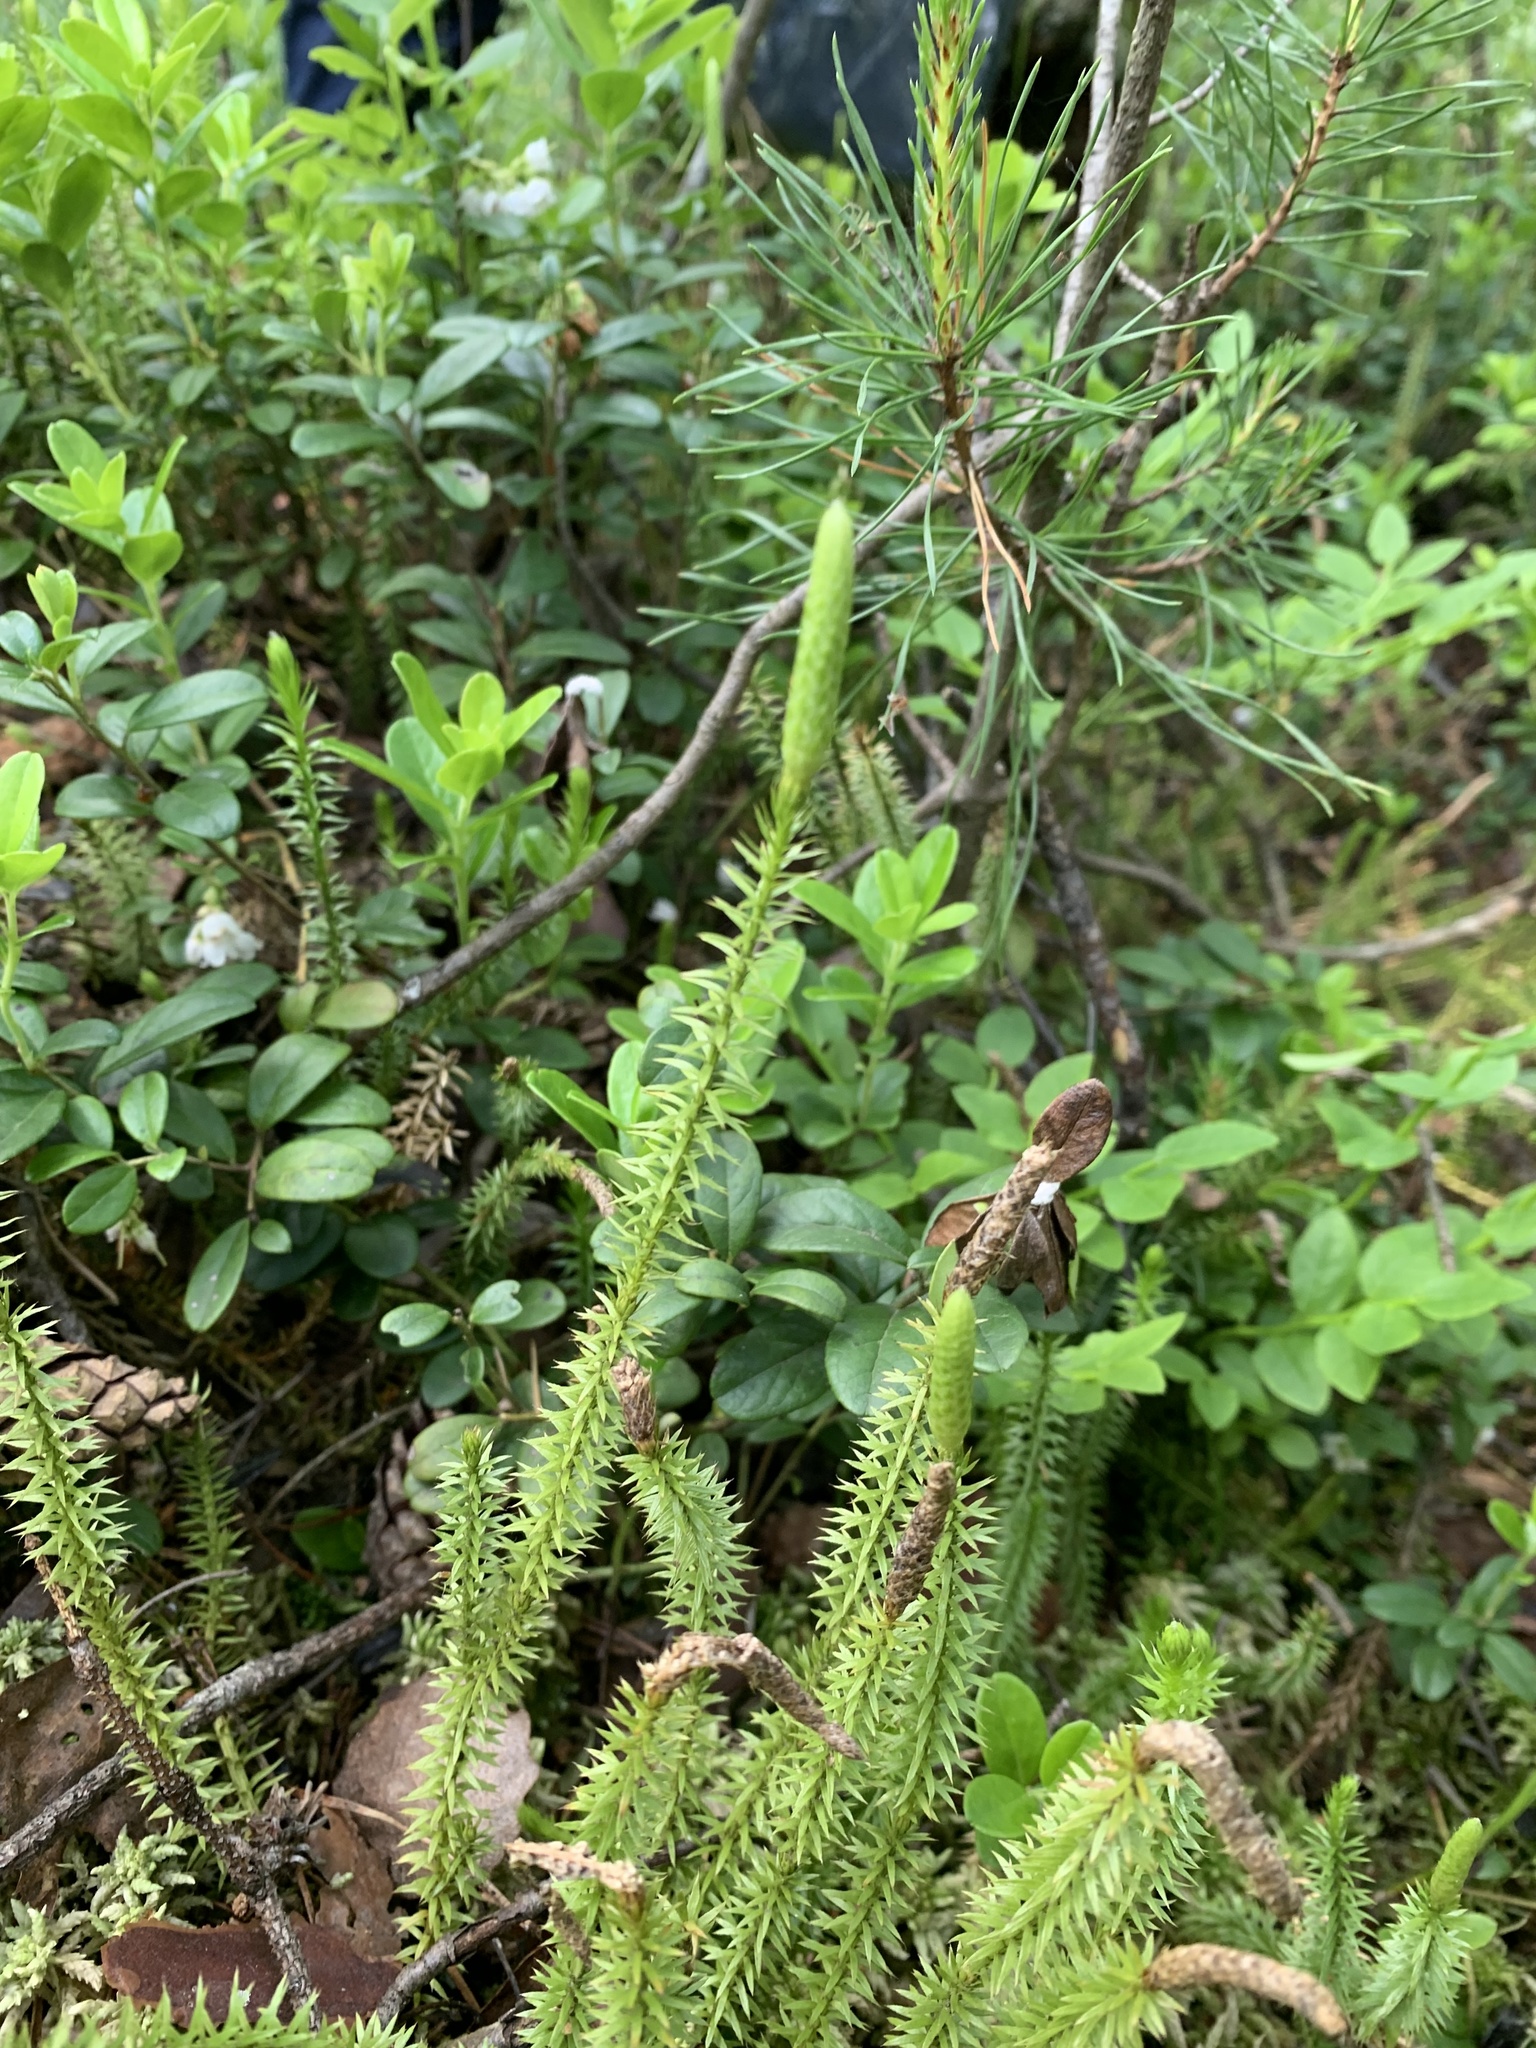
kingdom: Plantae
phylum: Tracheophyta
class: Lycopodiopsida
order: Lycopodiales
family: Lycopodiaceae
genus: Spinulum
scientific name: Spinulum annotinum
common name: Interrupted club-moss
